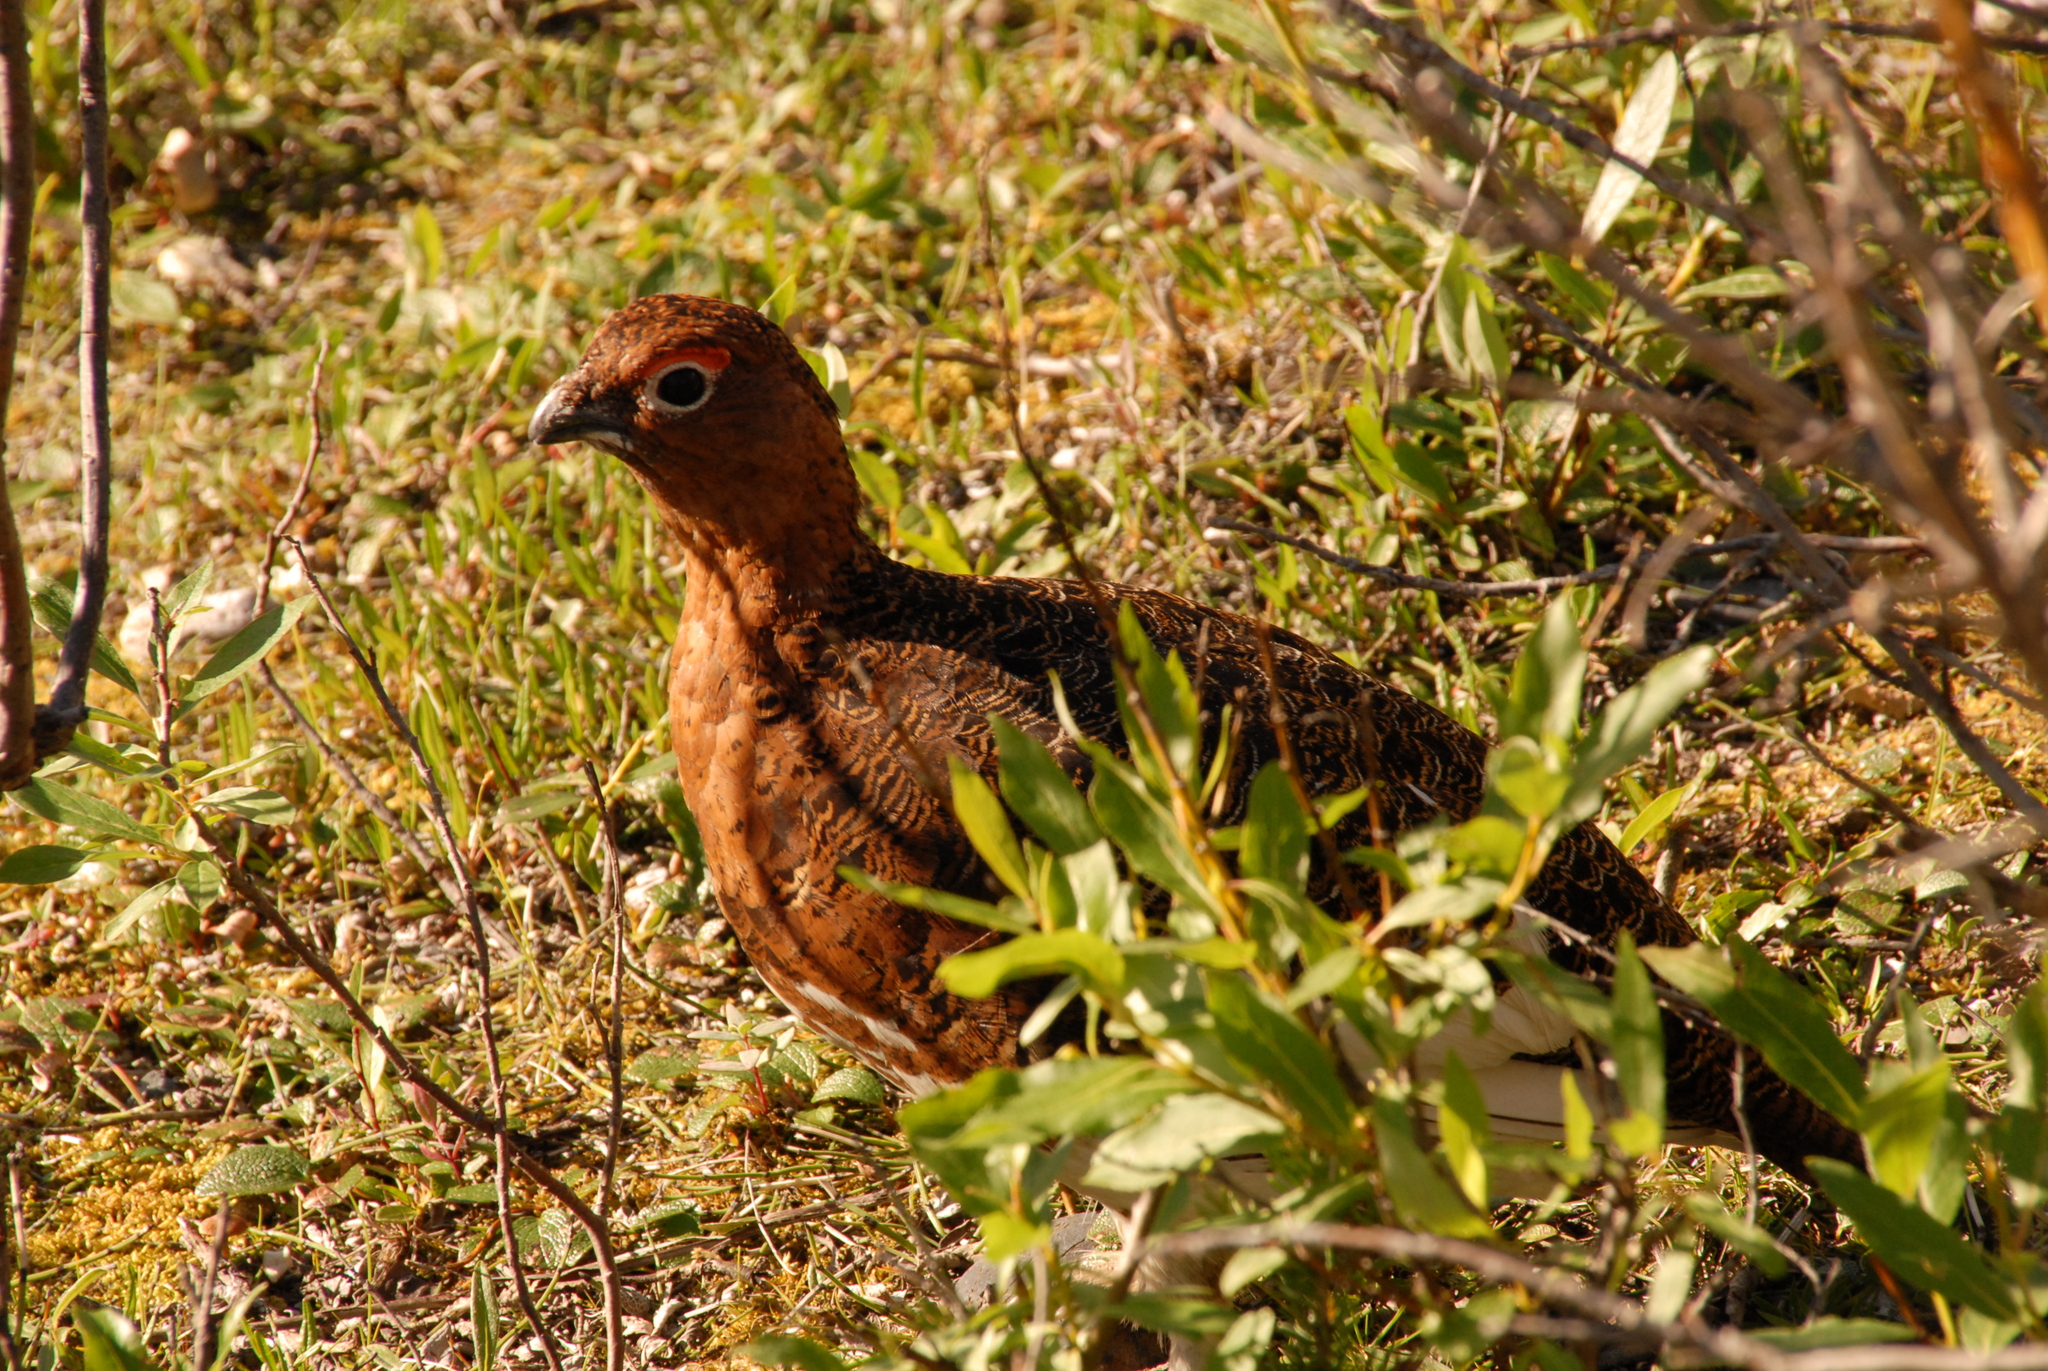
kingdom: Animalia
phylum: Chordata
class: Aves
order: Galliformes
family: Phasianidae
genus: Lagopus
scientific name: Lagopus lagopus
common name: Willow ptarmigan
